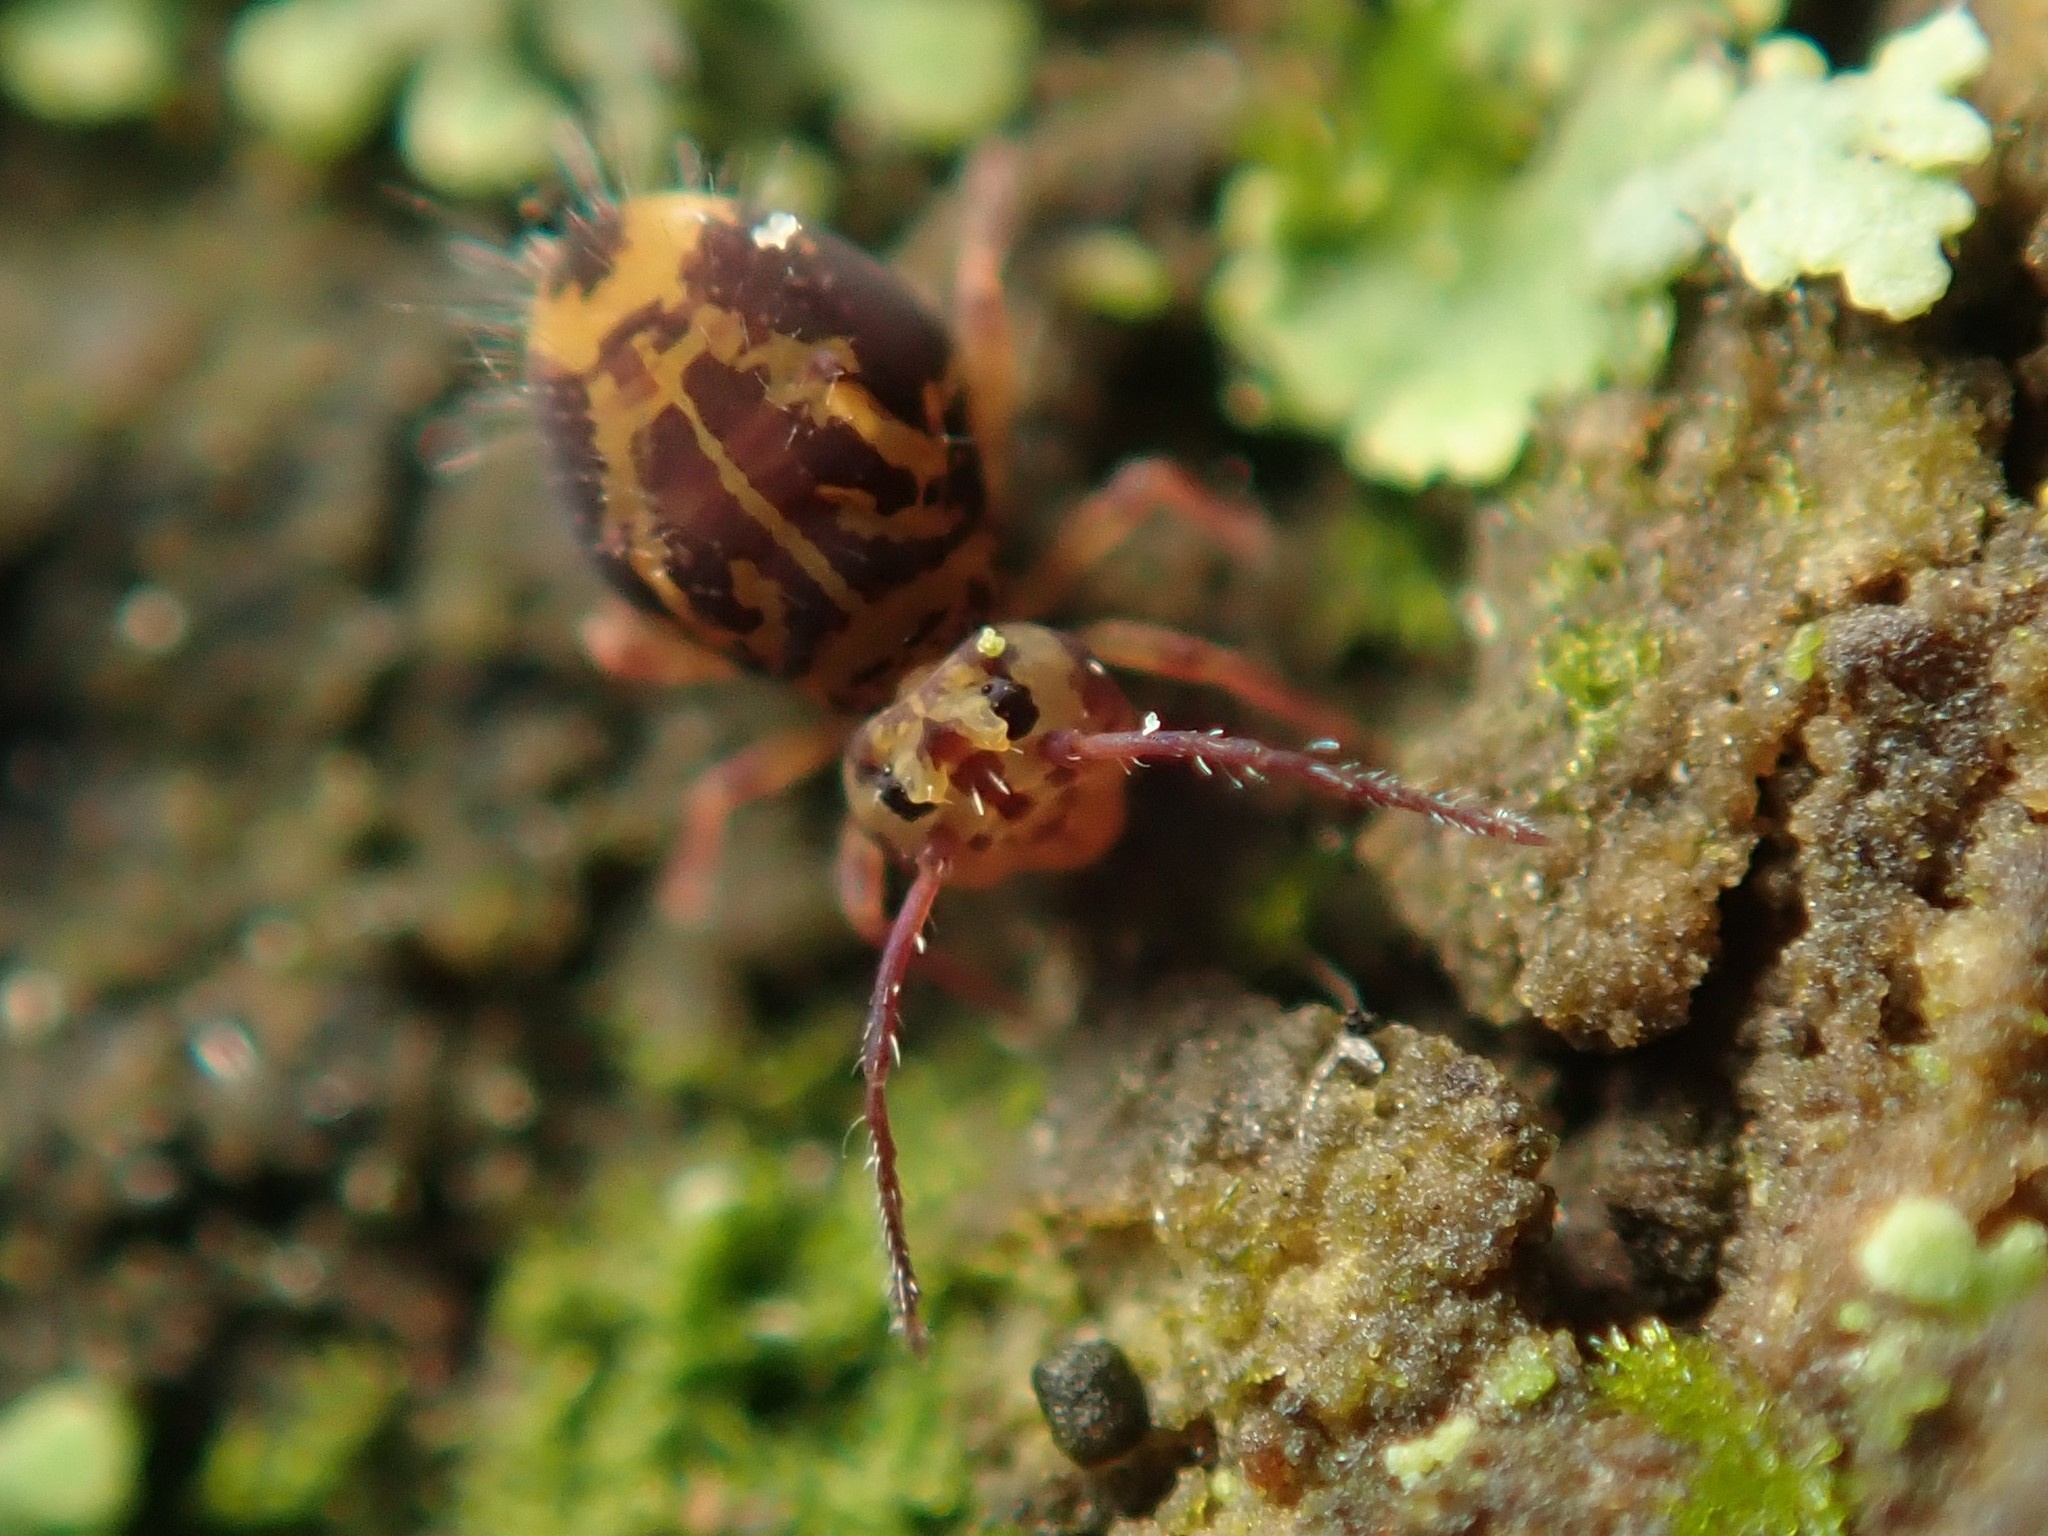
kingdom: Animalia
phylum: Arthropoda
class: Collembola
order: Symphypleona
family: Dicyrtomidae
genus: Dicyrtomina
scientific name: Dicyrtomina ornata
